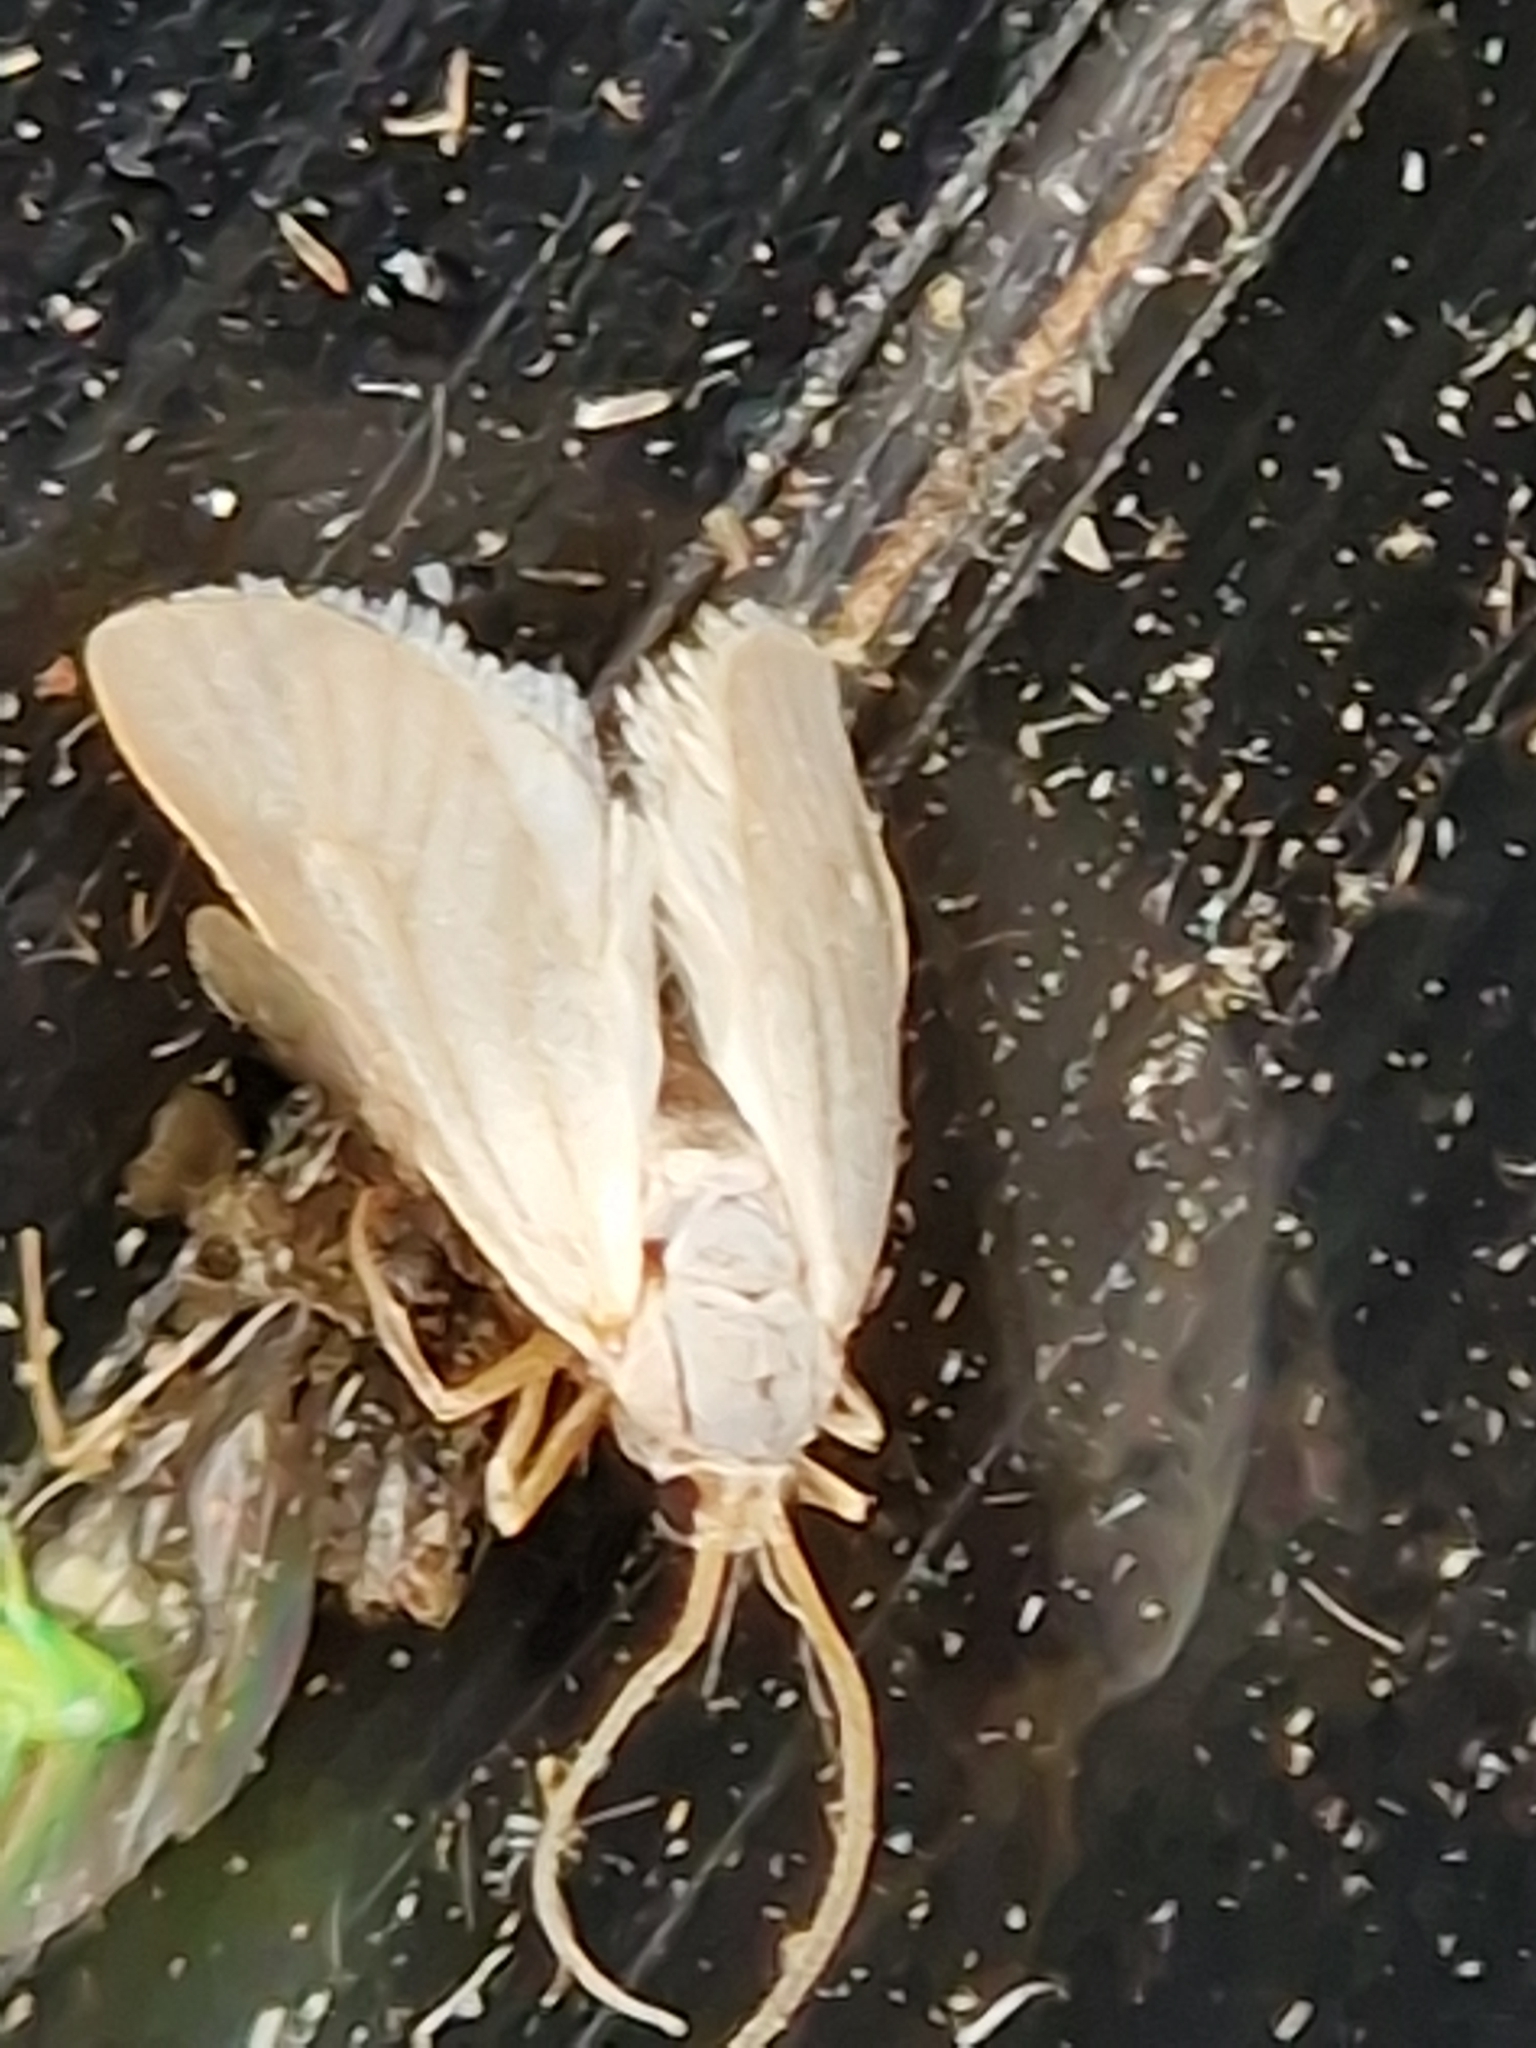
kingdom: Animalia
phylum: Arthropoda
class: Insecta
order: Lepidoptera
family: Crambidae
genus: Acentria
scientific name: Acentria ephemerella
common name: European water moth
